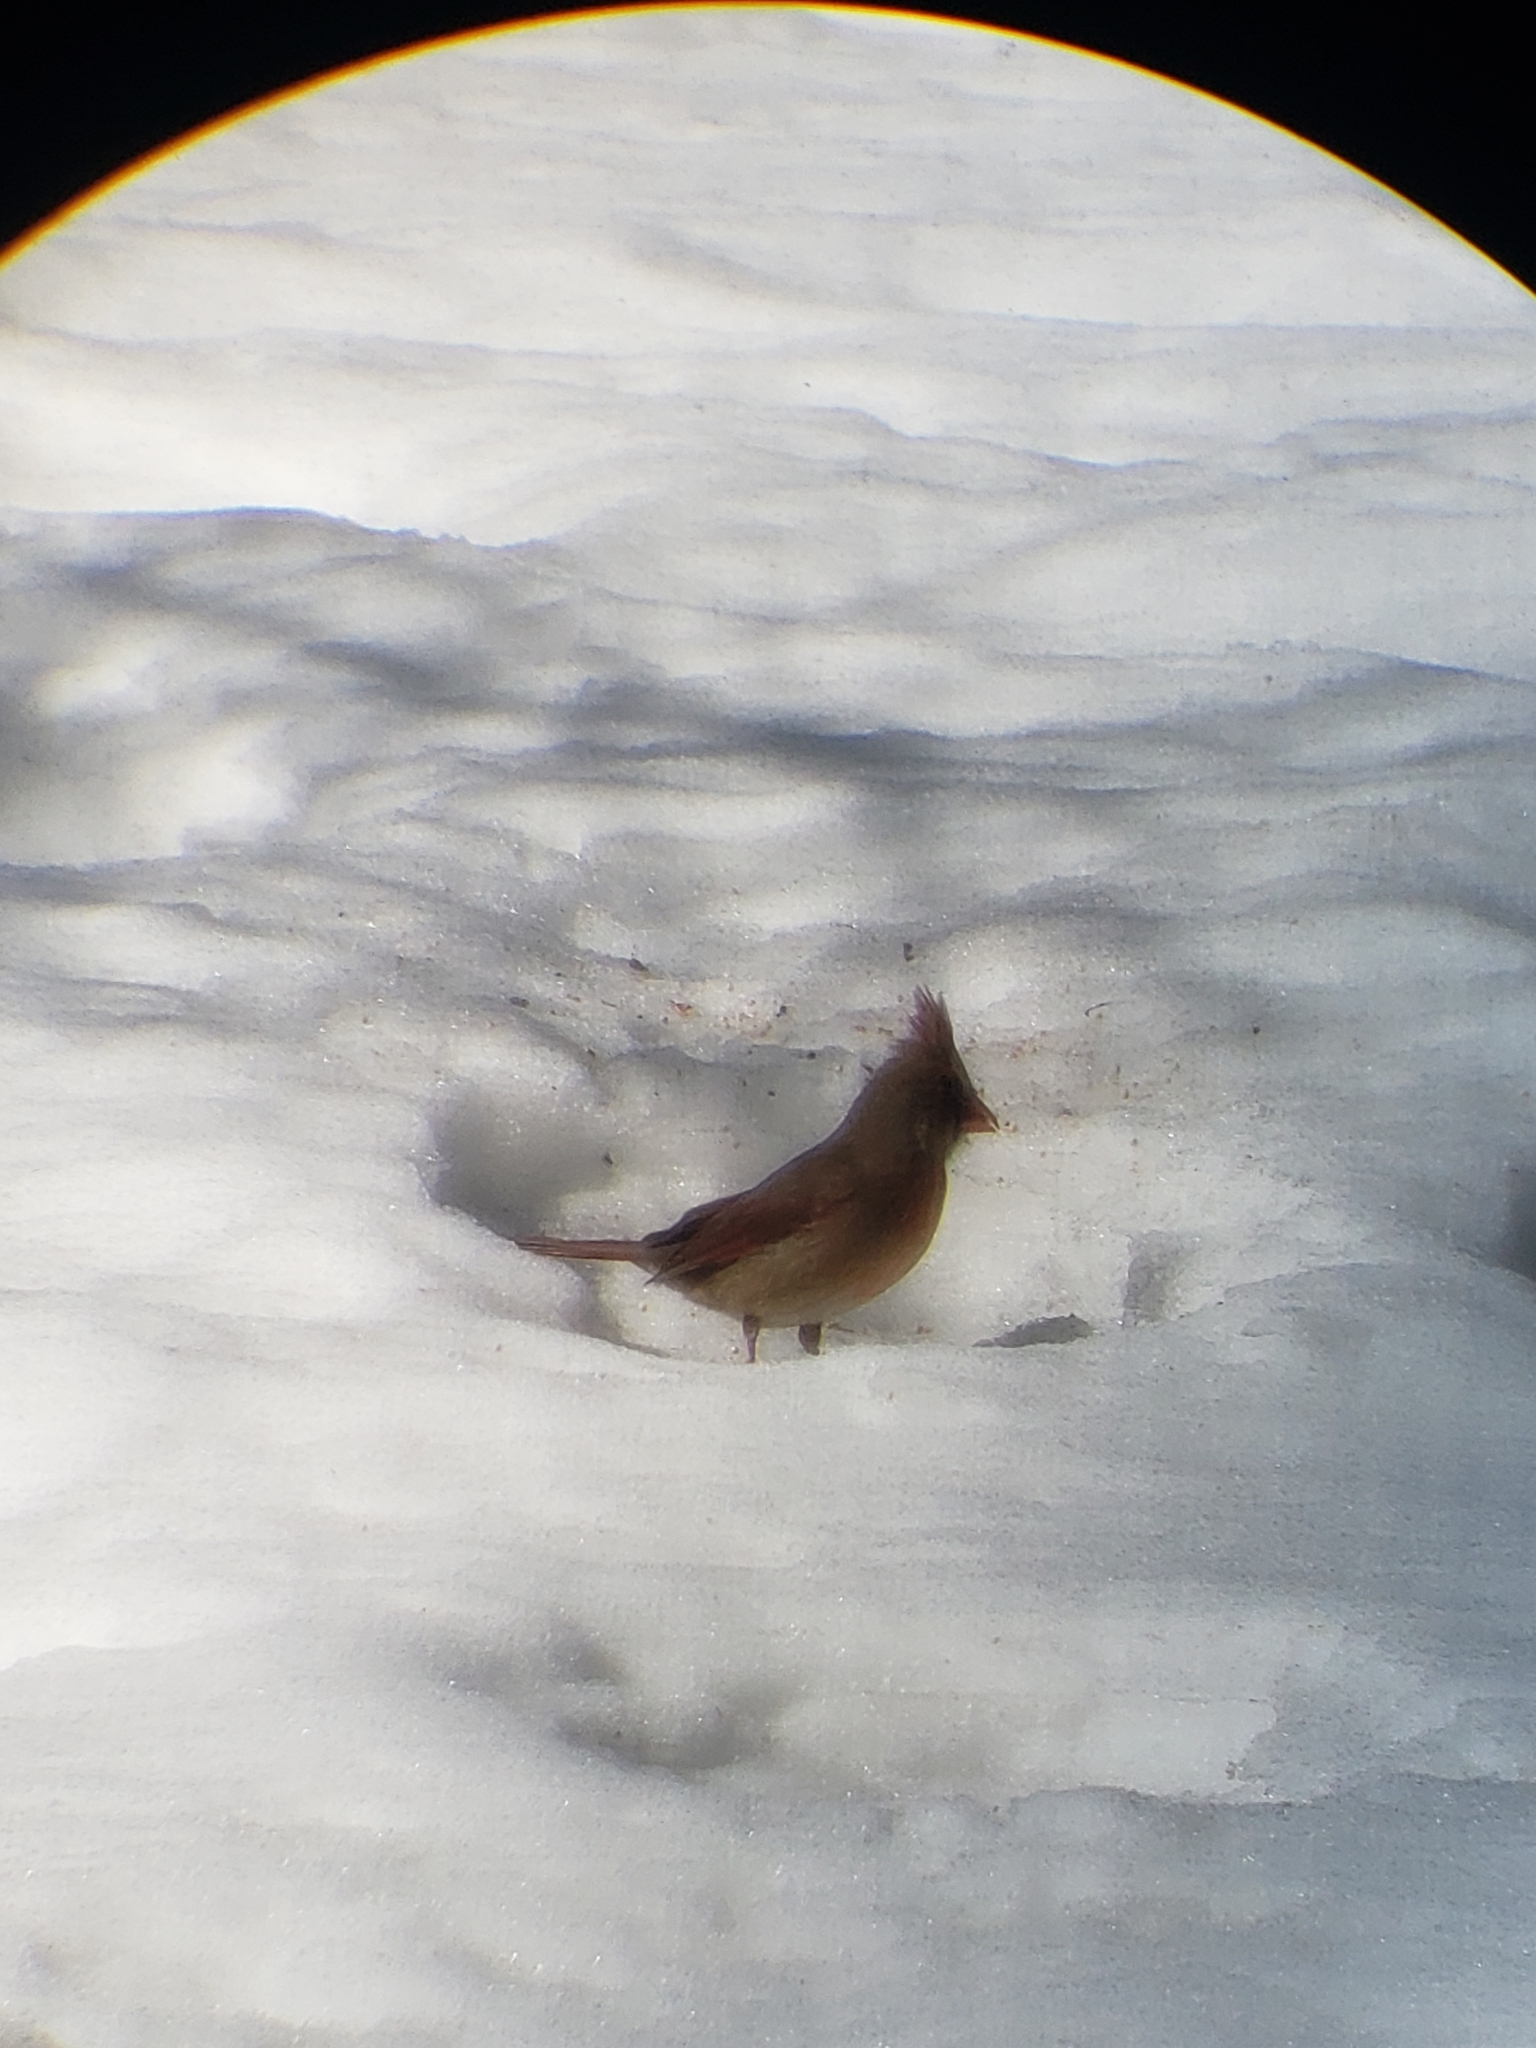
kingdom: Animalia
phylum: Chordata
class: Aves
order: Passeriformes
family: Cardinalidae
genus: Cardinalis
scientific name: Cardinalis cardinalis
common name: Northern cardinal
